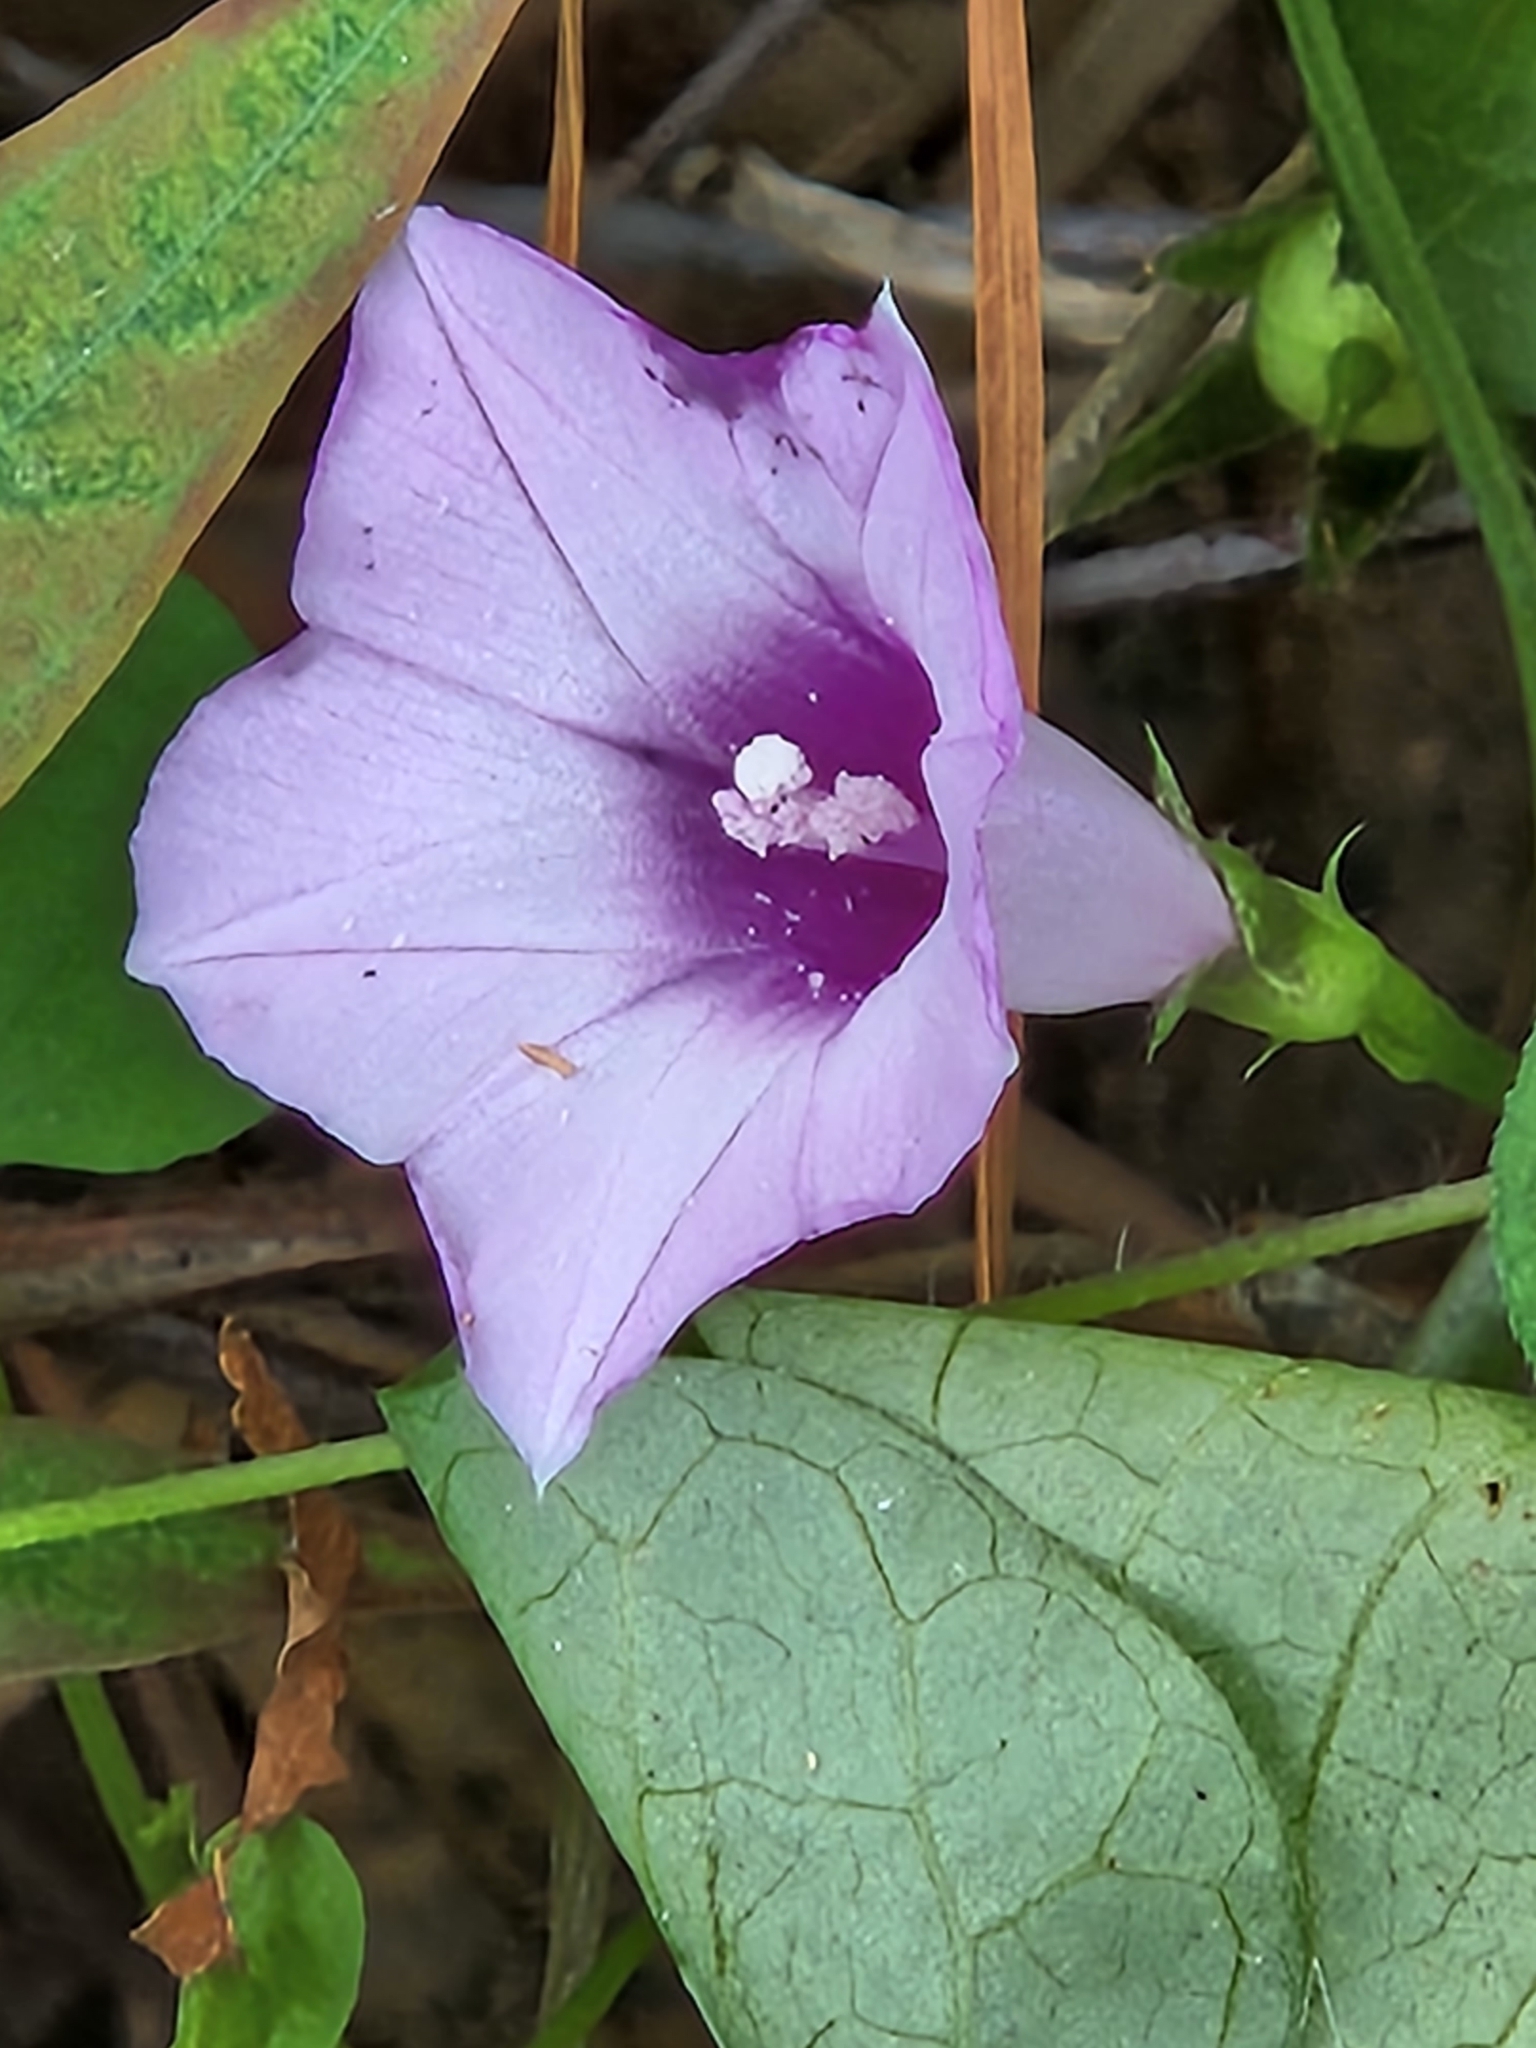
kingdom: Plantae
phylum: Tracheophyta
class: Magnoliopsida
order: Solanales
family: Convolvulaceae
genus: Ipomoea
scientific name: Ipomoea cordatotriloba
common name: Cotton morning glory
